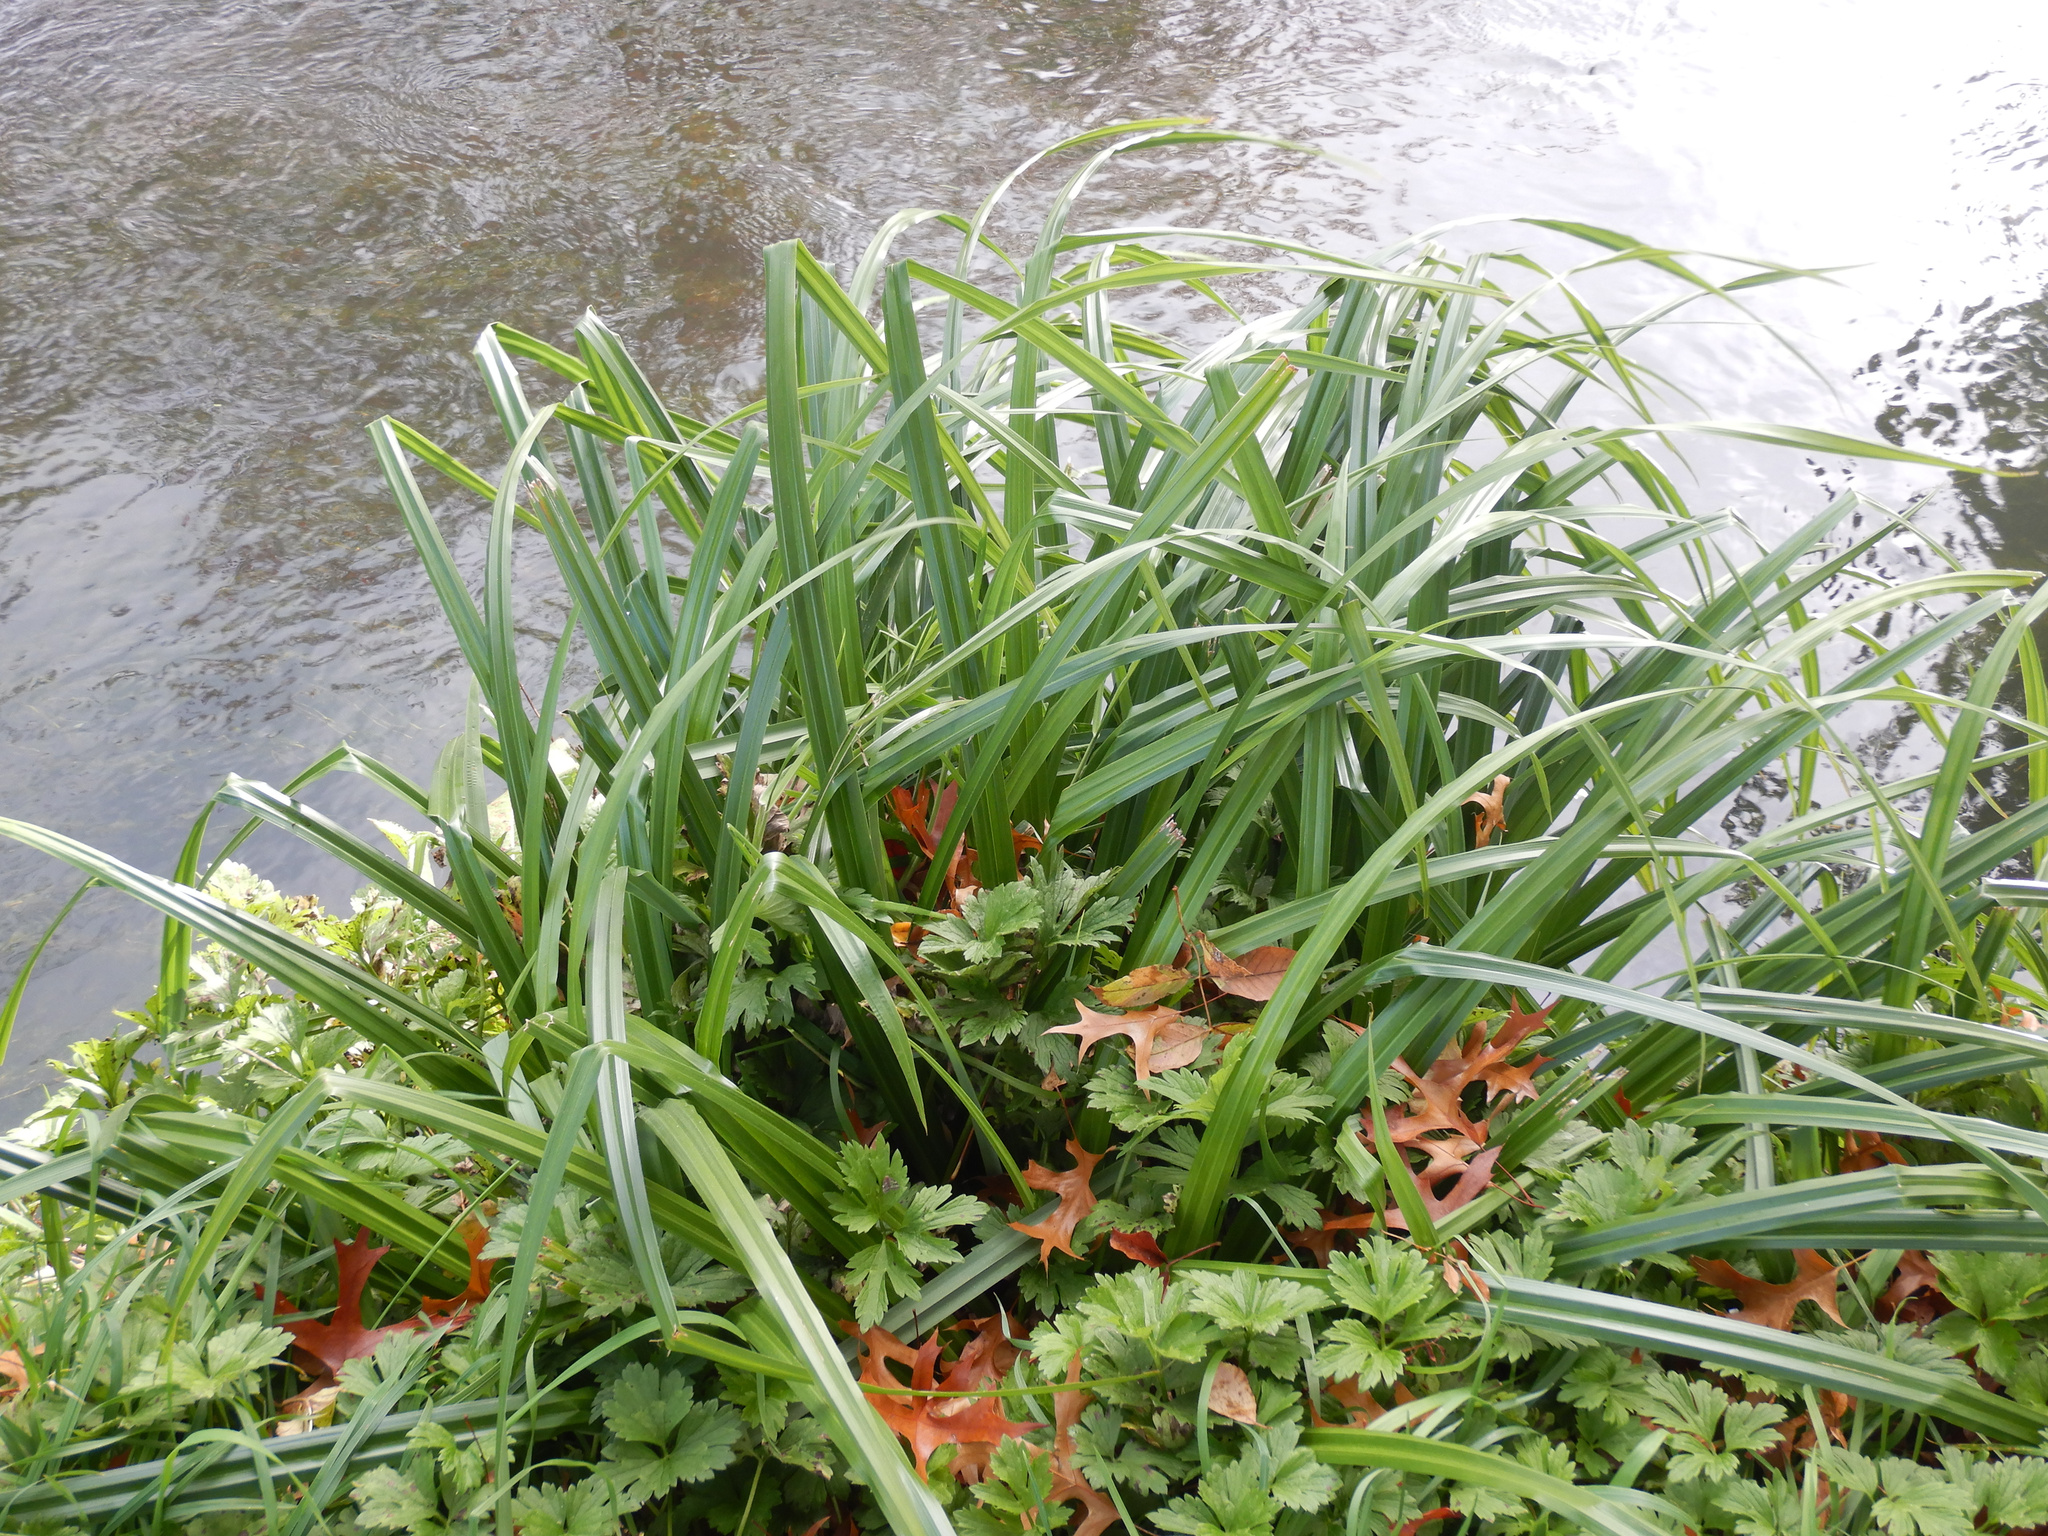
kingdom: Plantae
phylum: Tracheophyta
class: Liliopsida
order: Poales
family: Cyperaceae
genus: Carex
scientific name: Carex pendula
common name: Pendulous sedge
